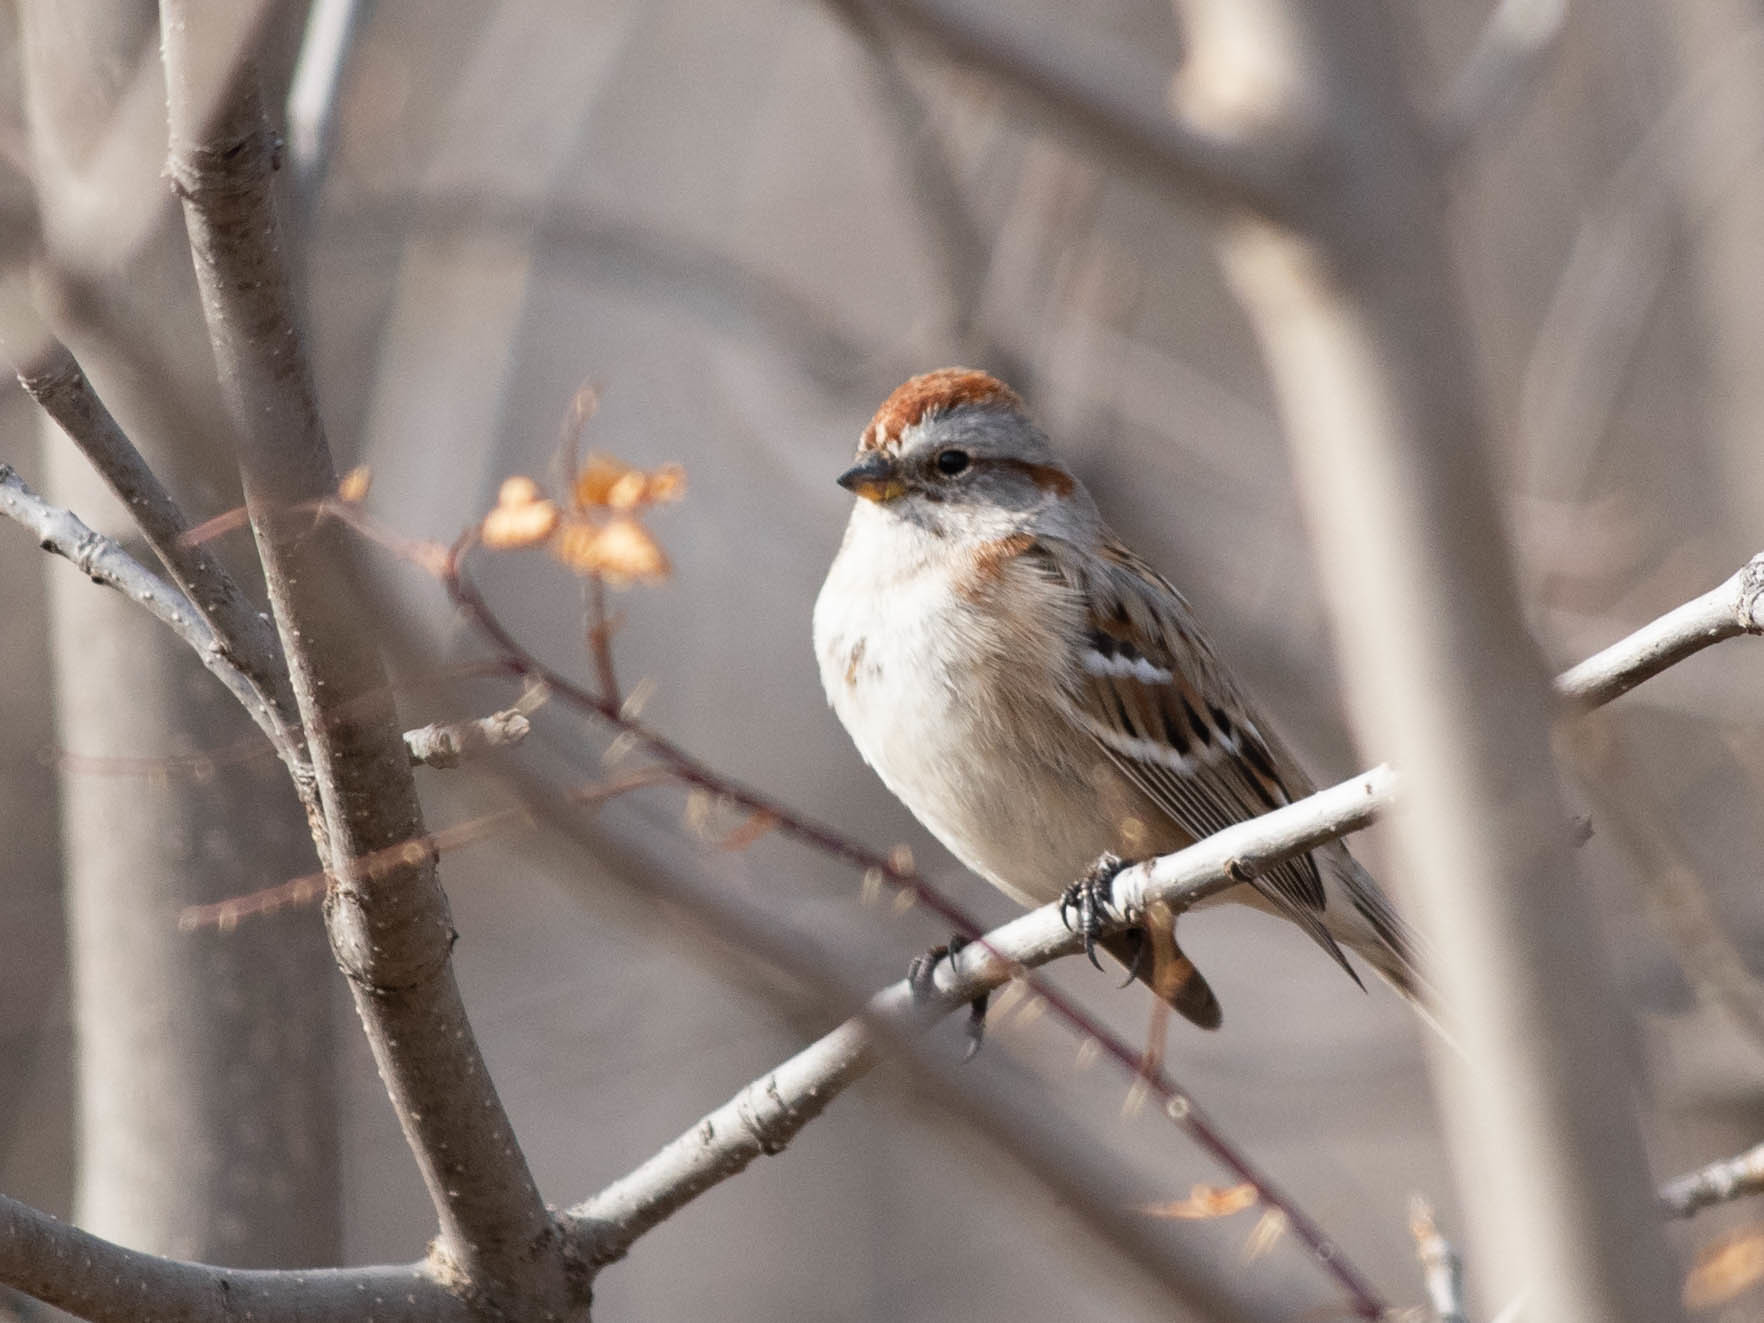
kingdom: Animalia
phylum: Chordata
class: Aves
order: Passeriformes
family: Passerellidae
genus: Spizelloides
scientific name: Spizelloides arborea
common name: American tree sparrow
